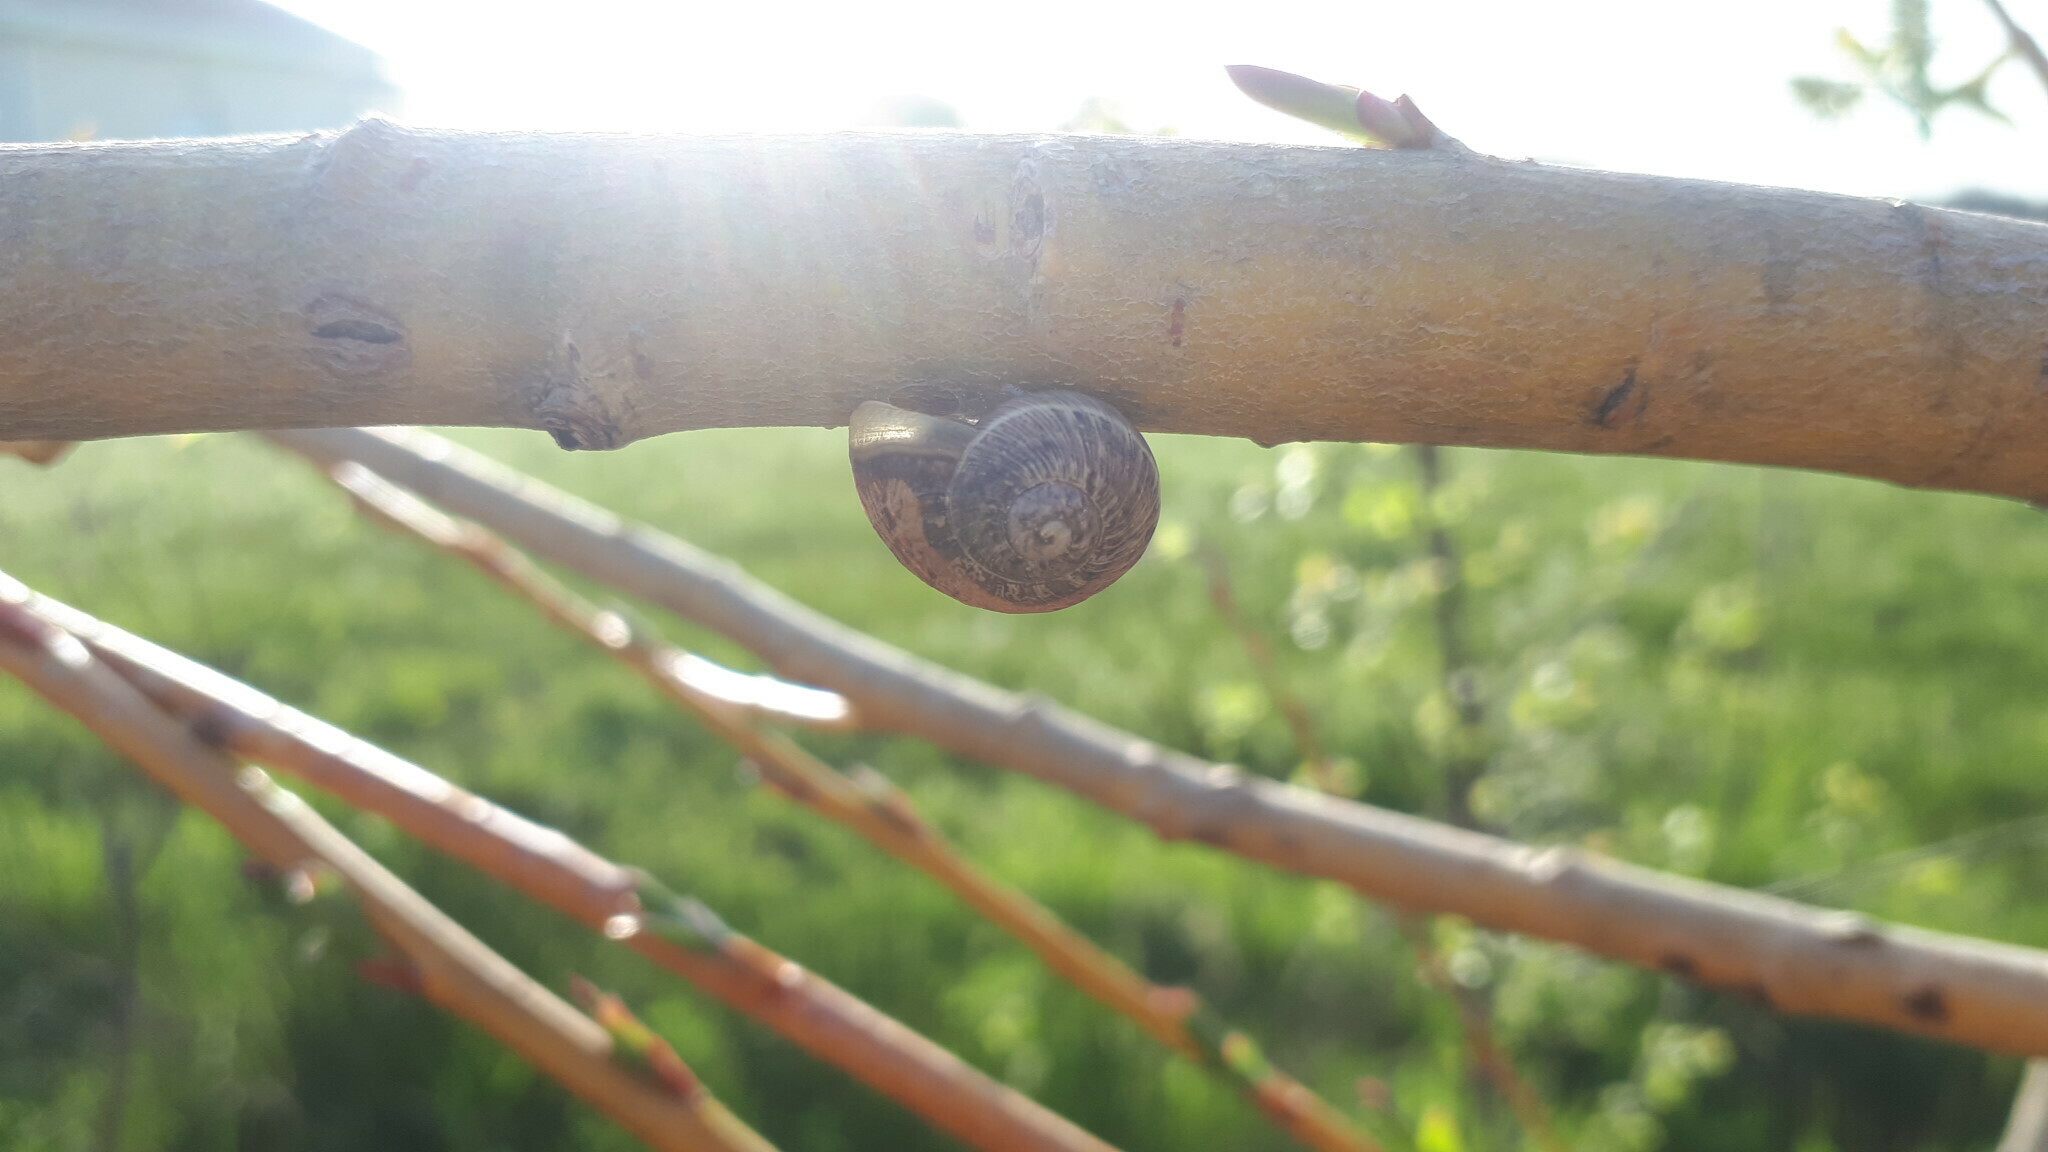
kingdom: Animalia
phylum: Mollusca
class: Gastropoda
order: Stylommatophora
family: Helicidae
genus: Cornu
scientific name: Cornu aspersum
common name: Brown garden snail
